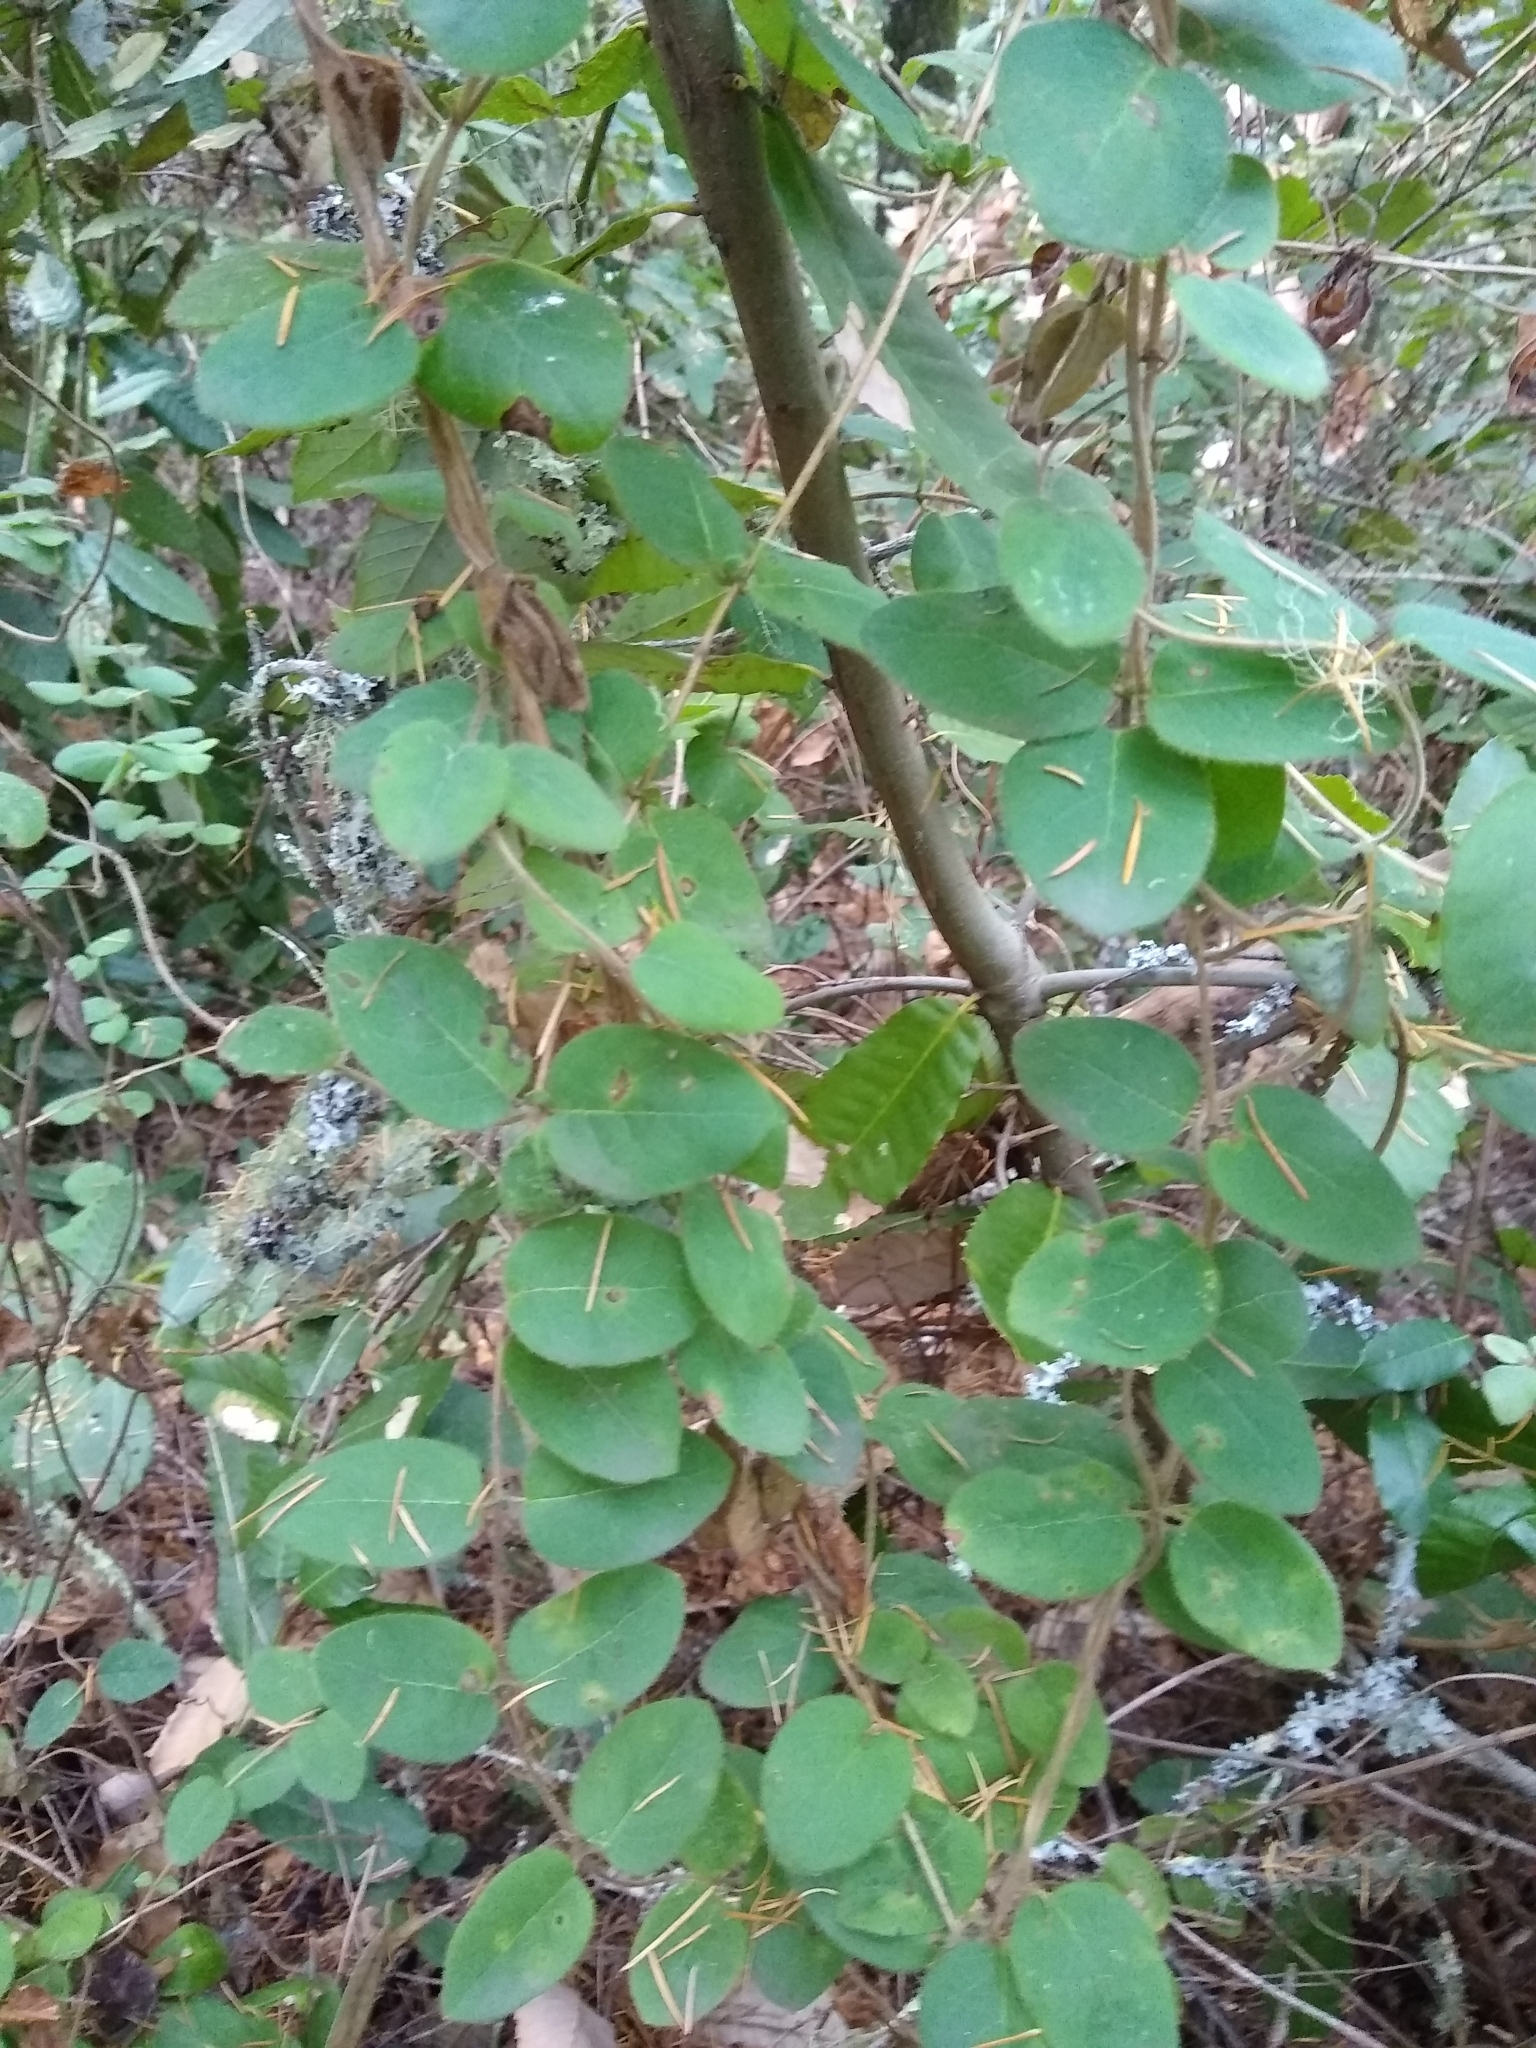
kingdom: Plantae
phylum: Tracheophyta
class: Magnoliopsida
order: Dipsacales
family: Caprifoliaceae
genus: Lonicera
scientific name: Lonicera hispidula
